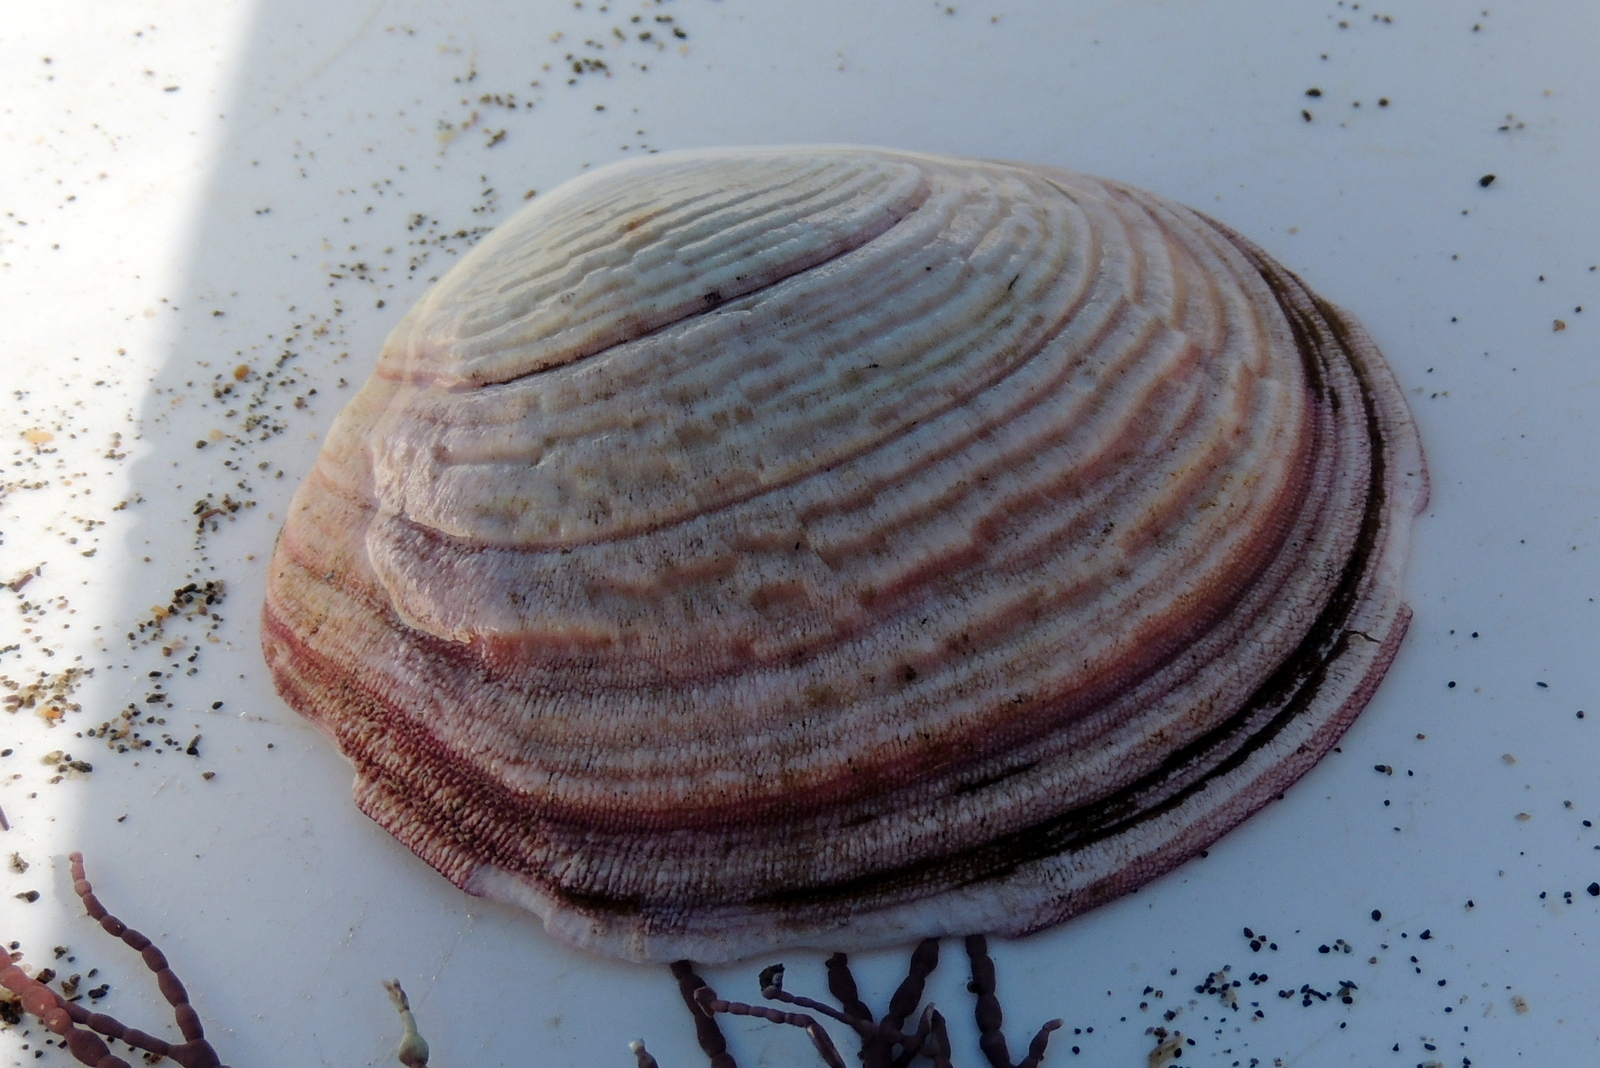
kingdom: Animalia
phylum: Mollusca
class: Bivalvia
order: Cardiida
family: Semelidae
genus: Semele
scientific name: Semele decisa
